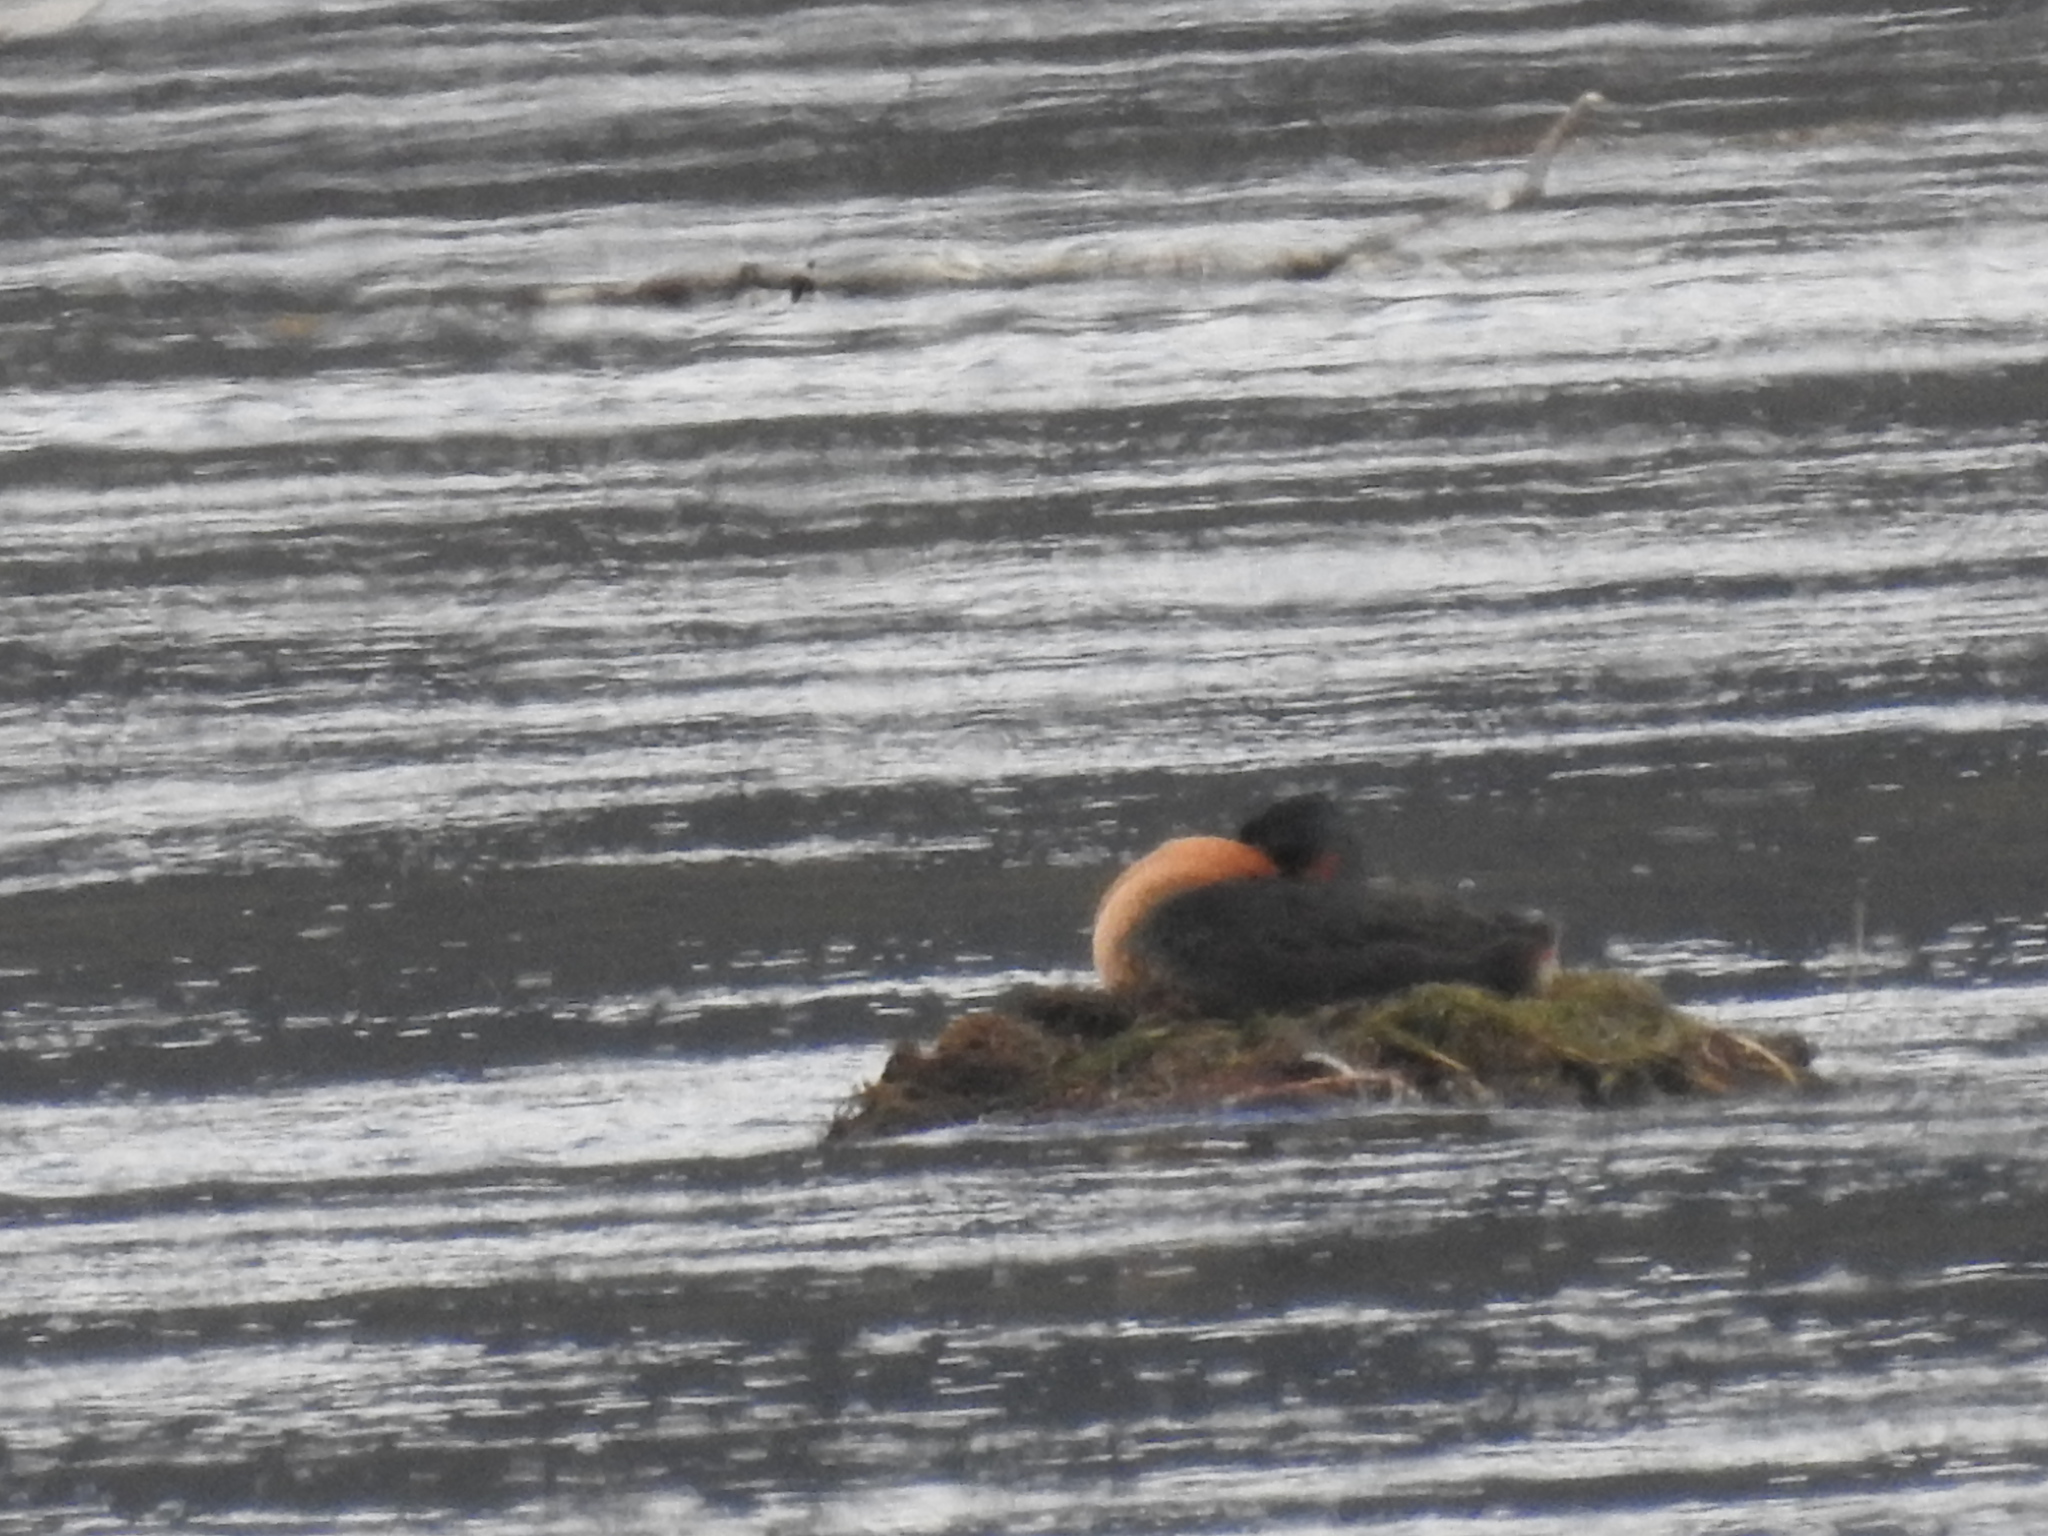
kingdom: Animalia
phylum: Chordata
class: Aves
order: Podicipediformes
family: Podicipedidae
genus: Podiceps
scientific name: Podiceps major
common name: Great grebe
